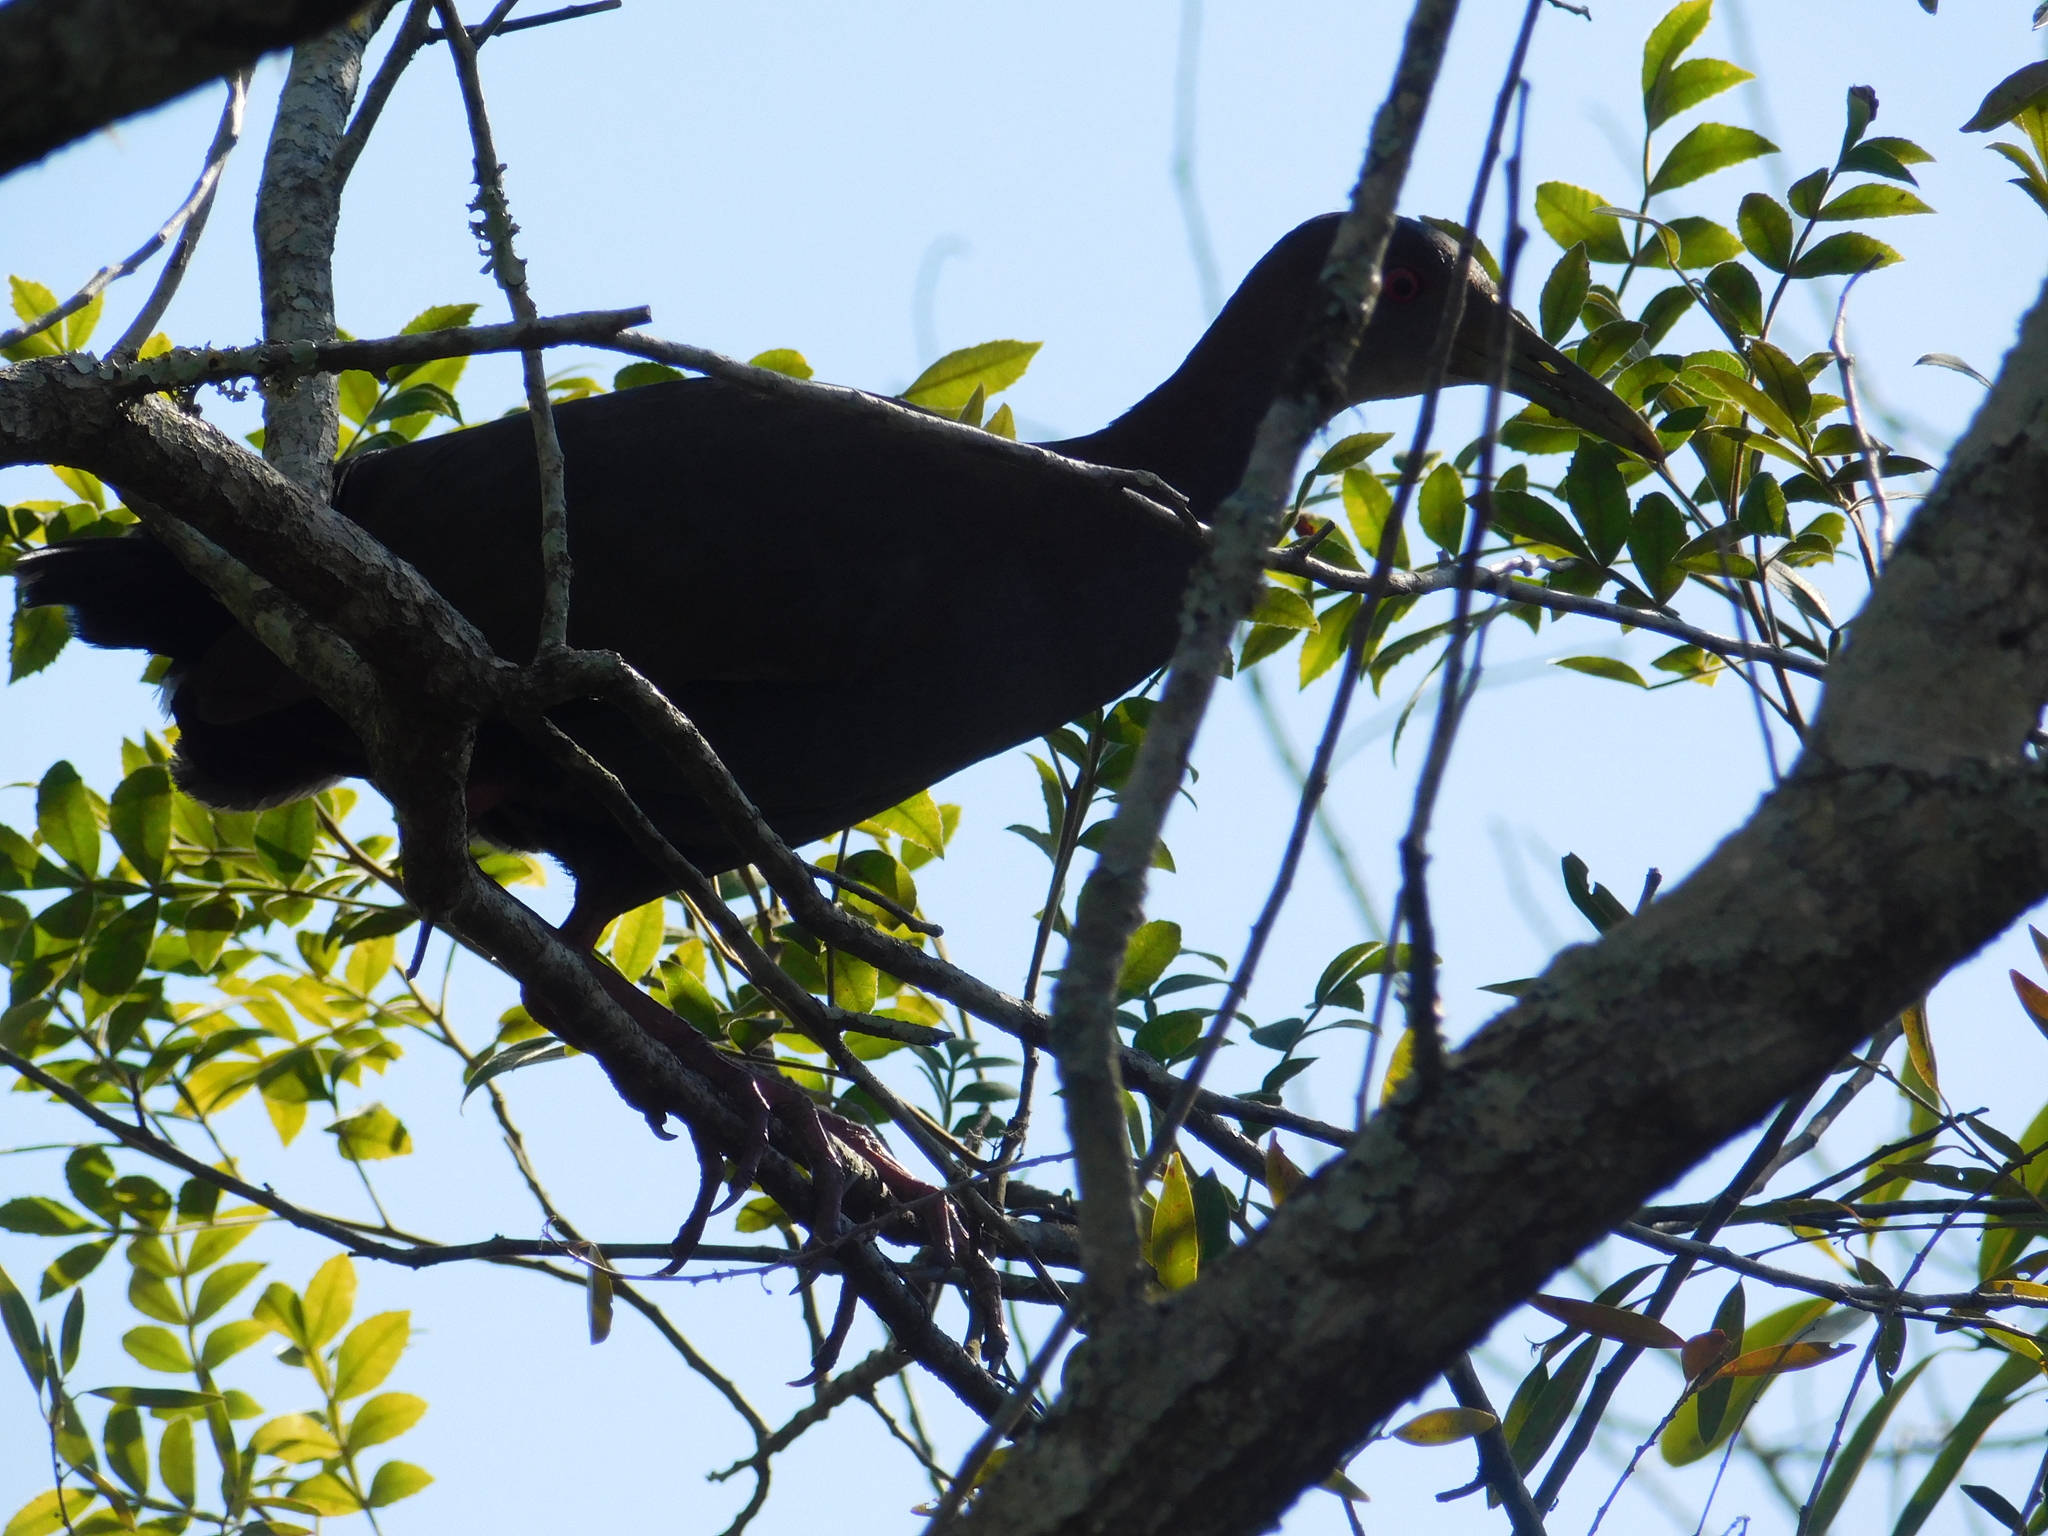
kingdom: Animalia
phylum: Chordata
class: Aves
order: Gruiformes
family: Rallidae
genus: Aramides
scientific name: Aramides saracura
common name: Slaty-breasted wood rail
